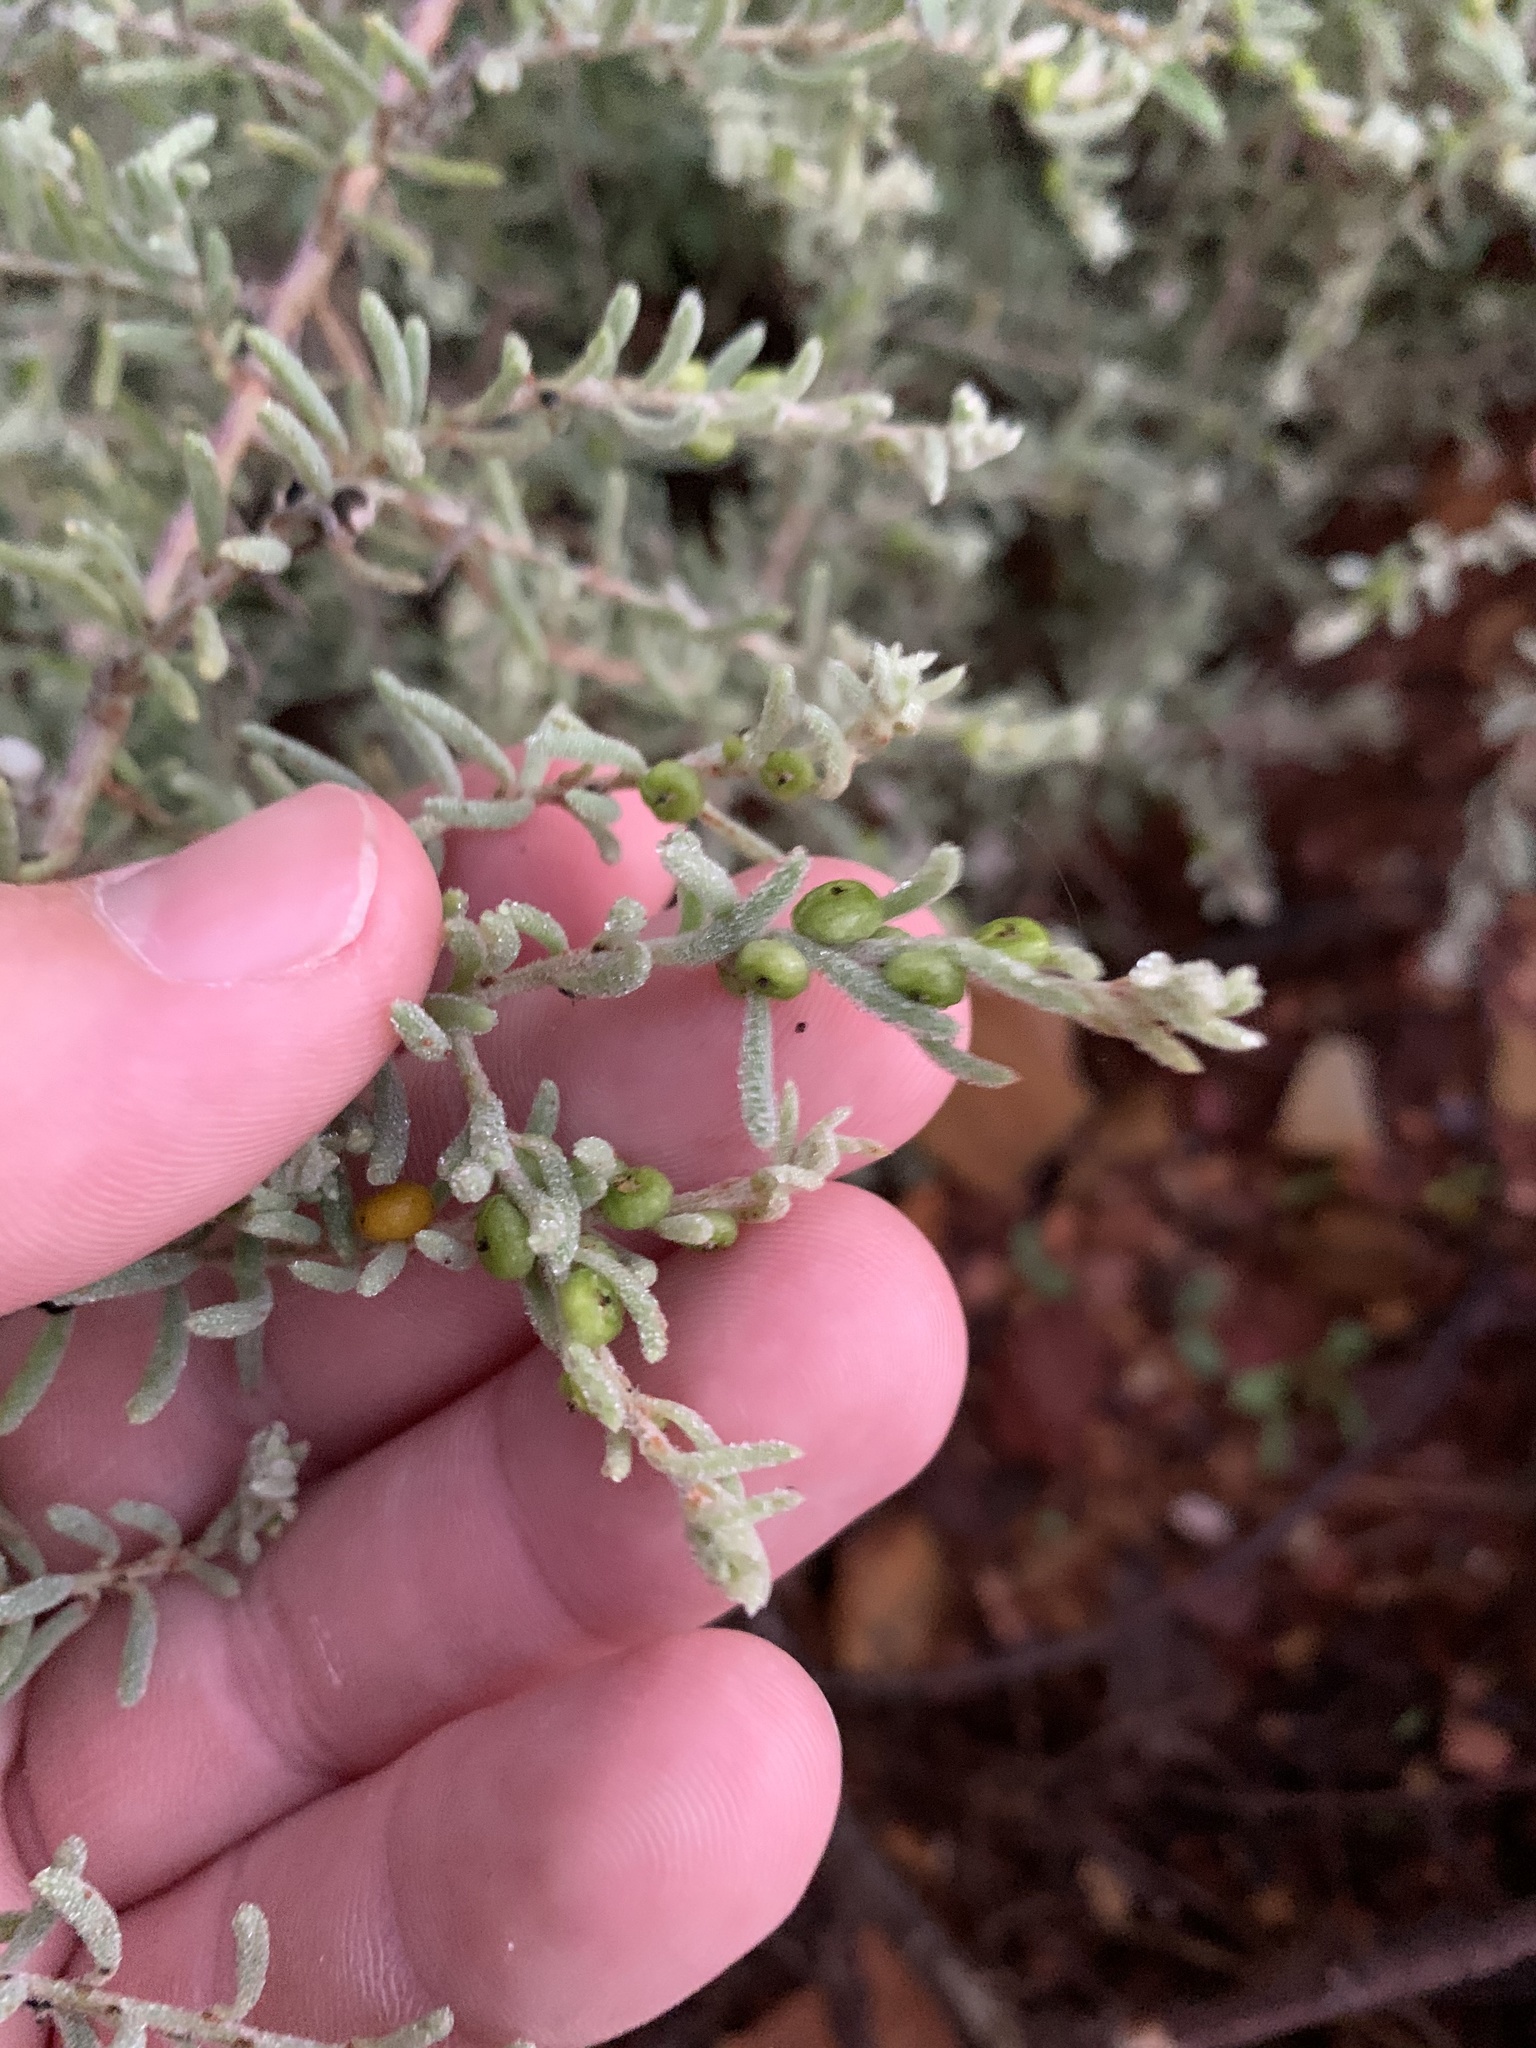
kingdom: Plantae
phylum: Tracheophyta
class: Magnoliopsida
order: Caryophyllales
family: Amaranthaceae
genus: Enchylaena
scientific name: Enchylaena tomentosa
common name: Ruby saltbush
